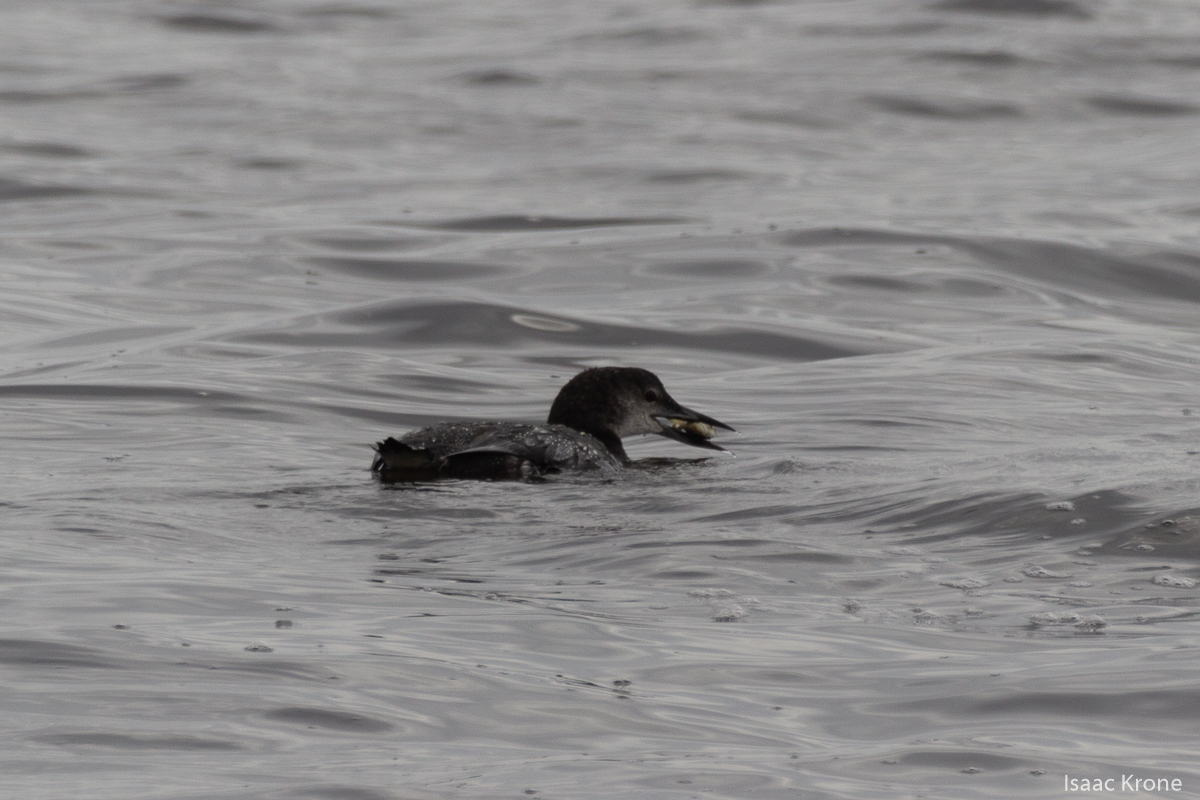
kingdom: Animalia
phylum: Chordata
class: Aves
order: Gaviiformes
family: Gaviidae
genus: Gavia
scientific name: Gavia immer
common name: Common loon
